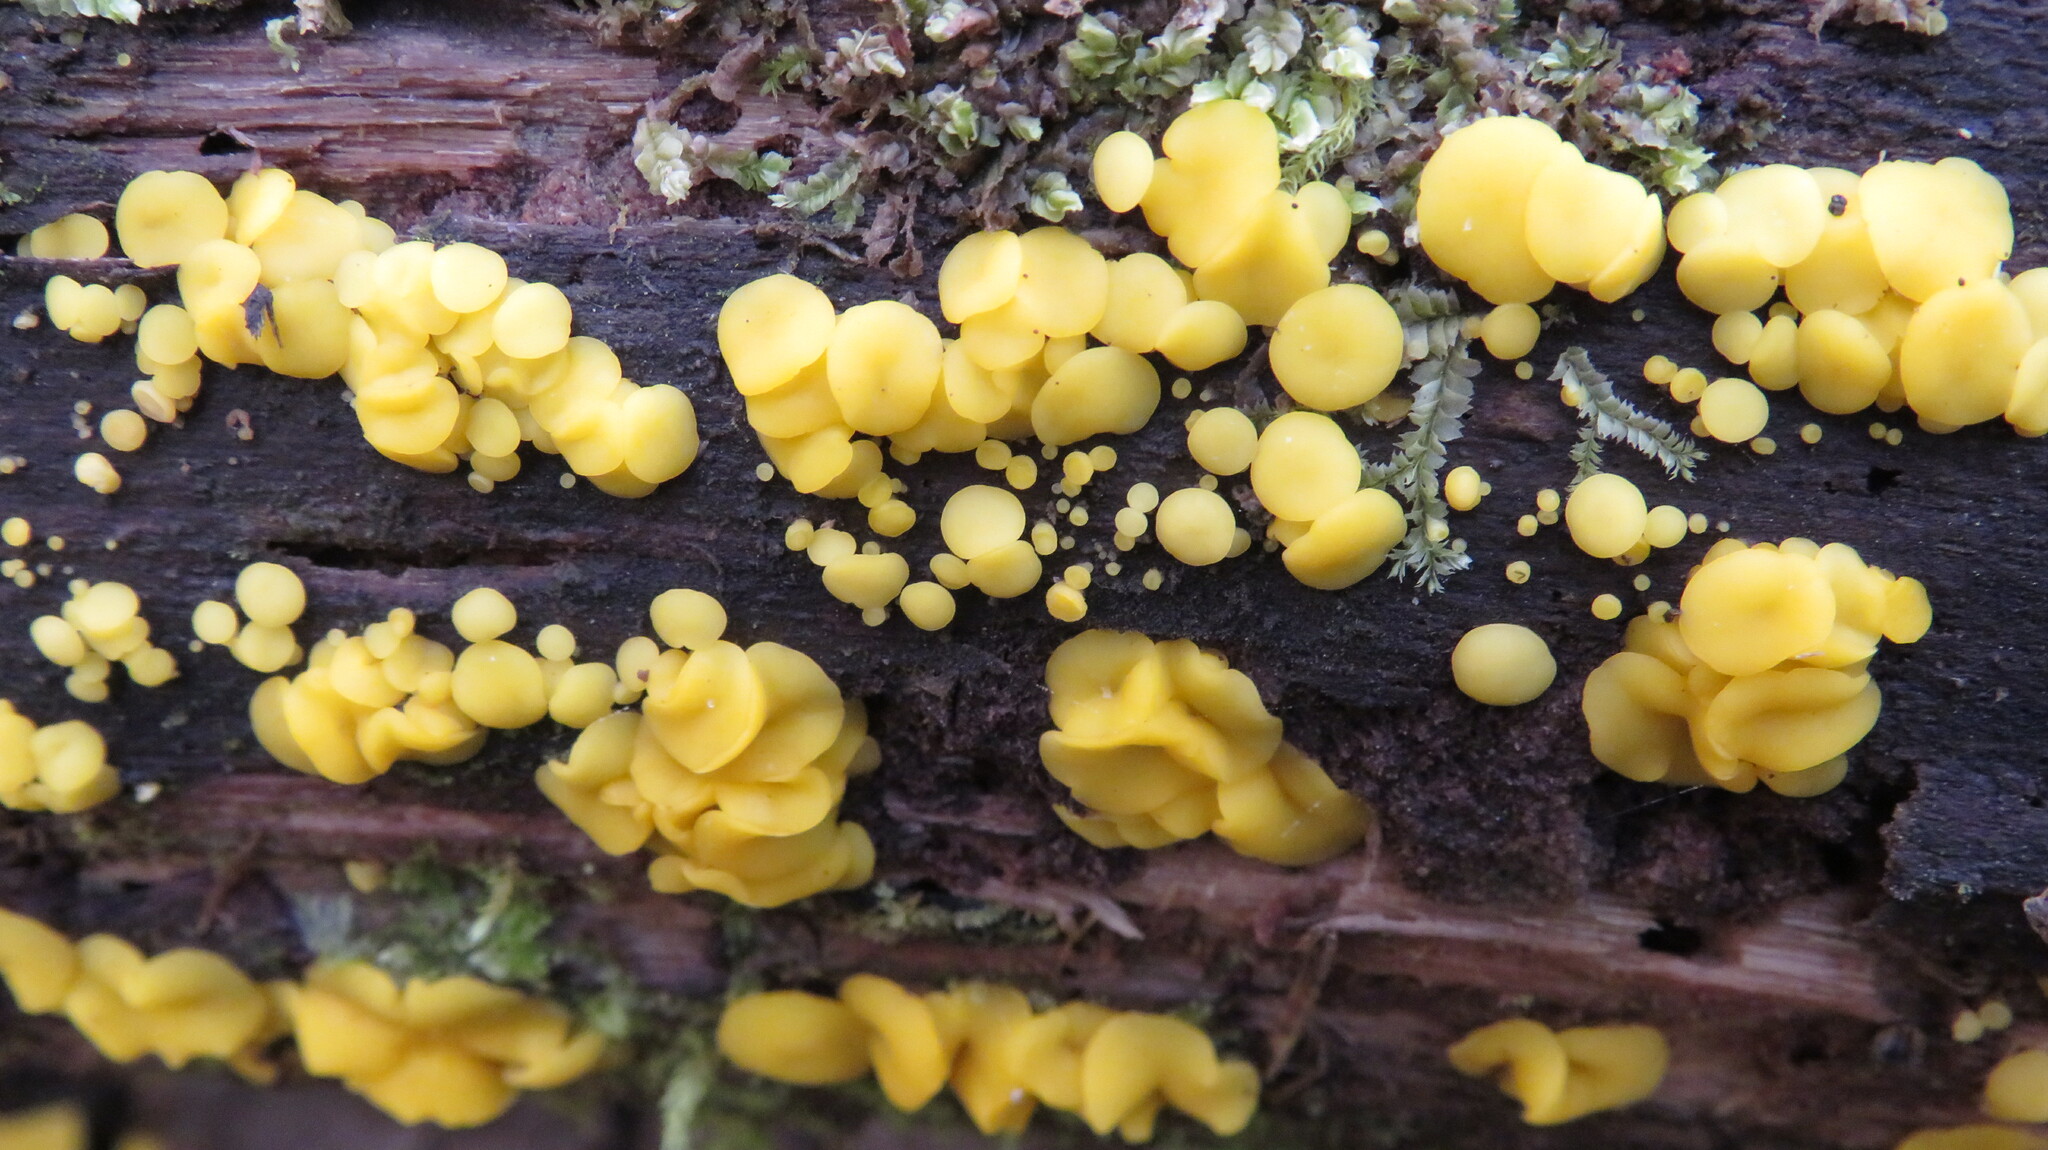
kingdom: Fungi
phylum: Ascomycota
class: Leotiomycetes
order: Helotiales
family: Pezizellaceae
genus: Calycina
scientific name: Calycina citrina
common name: Yellow fairy cups
